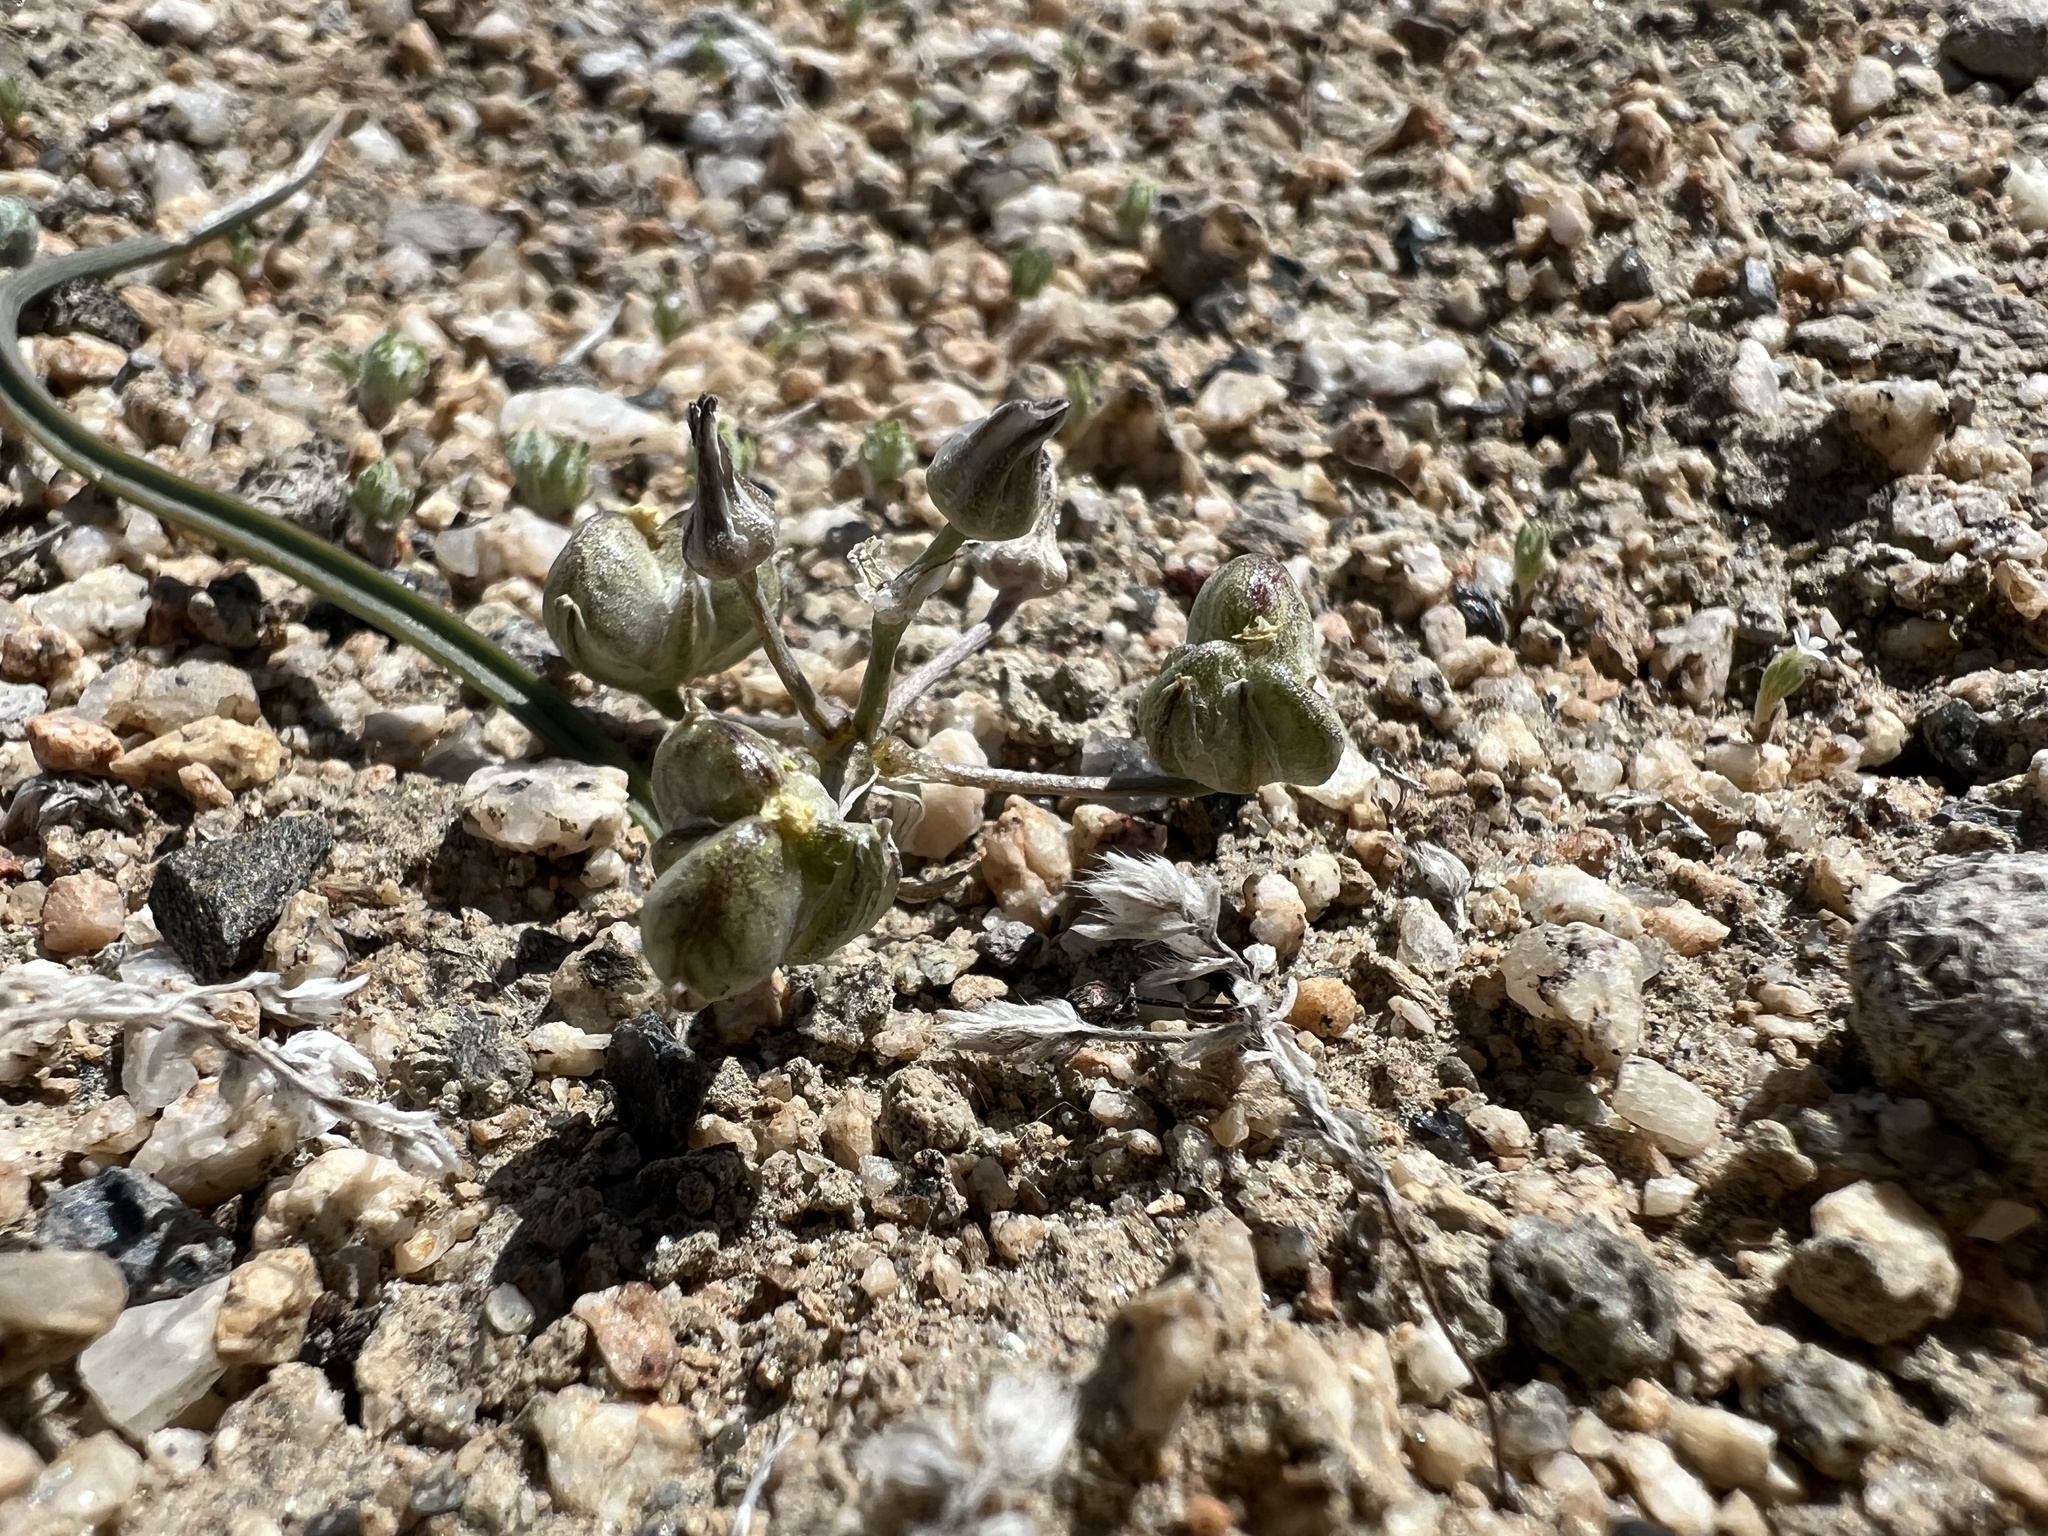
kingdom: Plantae
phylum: Tracheophyta
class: Liliopsida
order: Asparagales
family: Asparagaceae
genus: Muilla
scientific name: Muilla coronata
